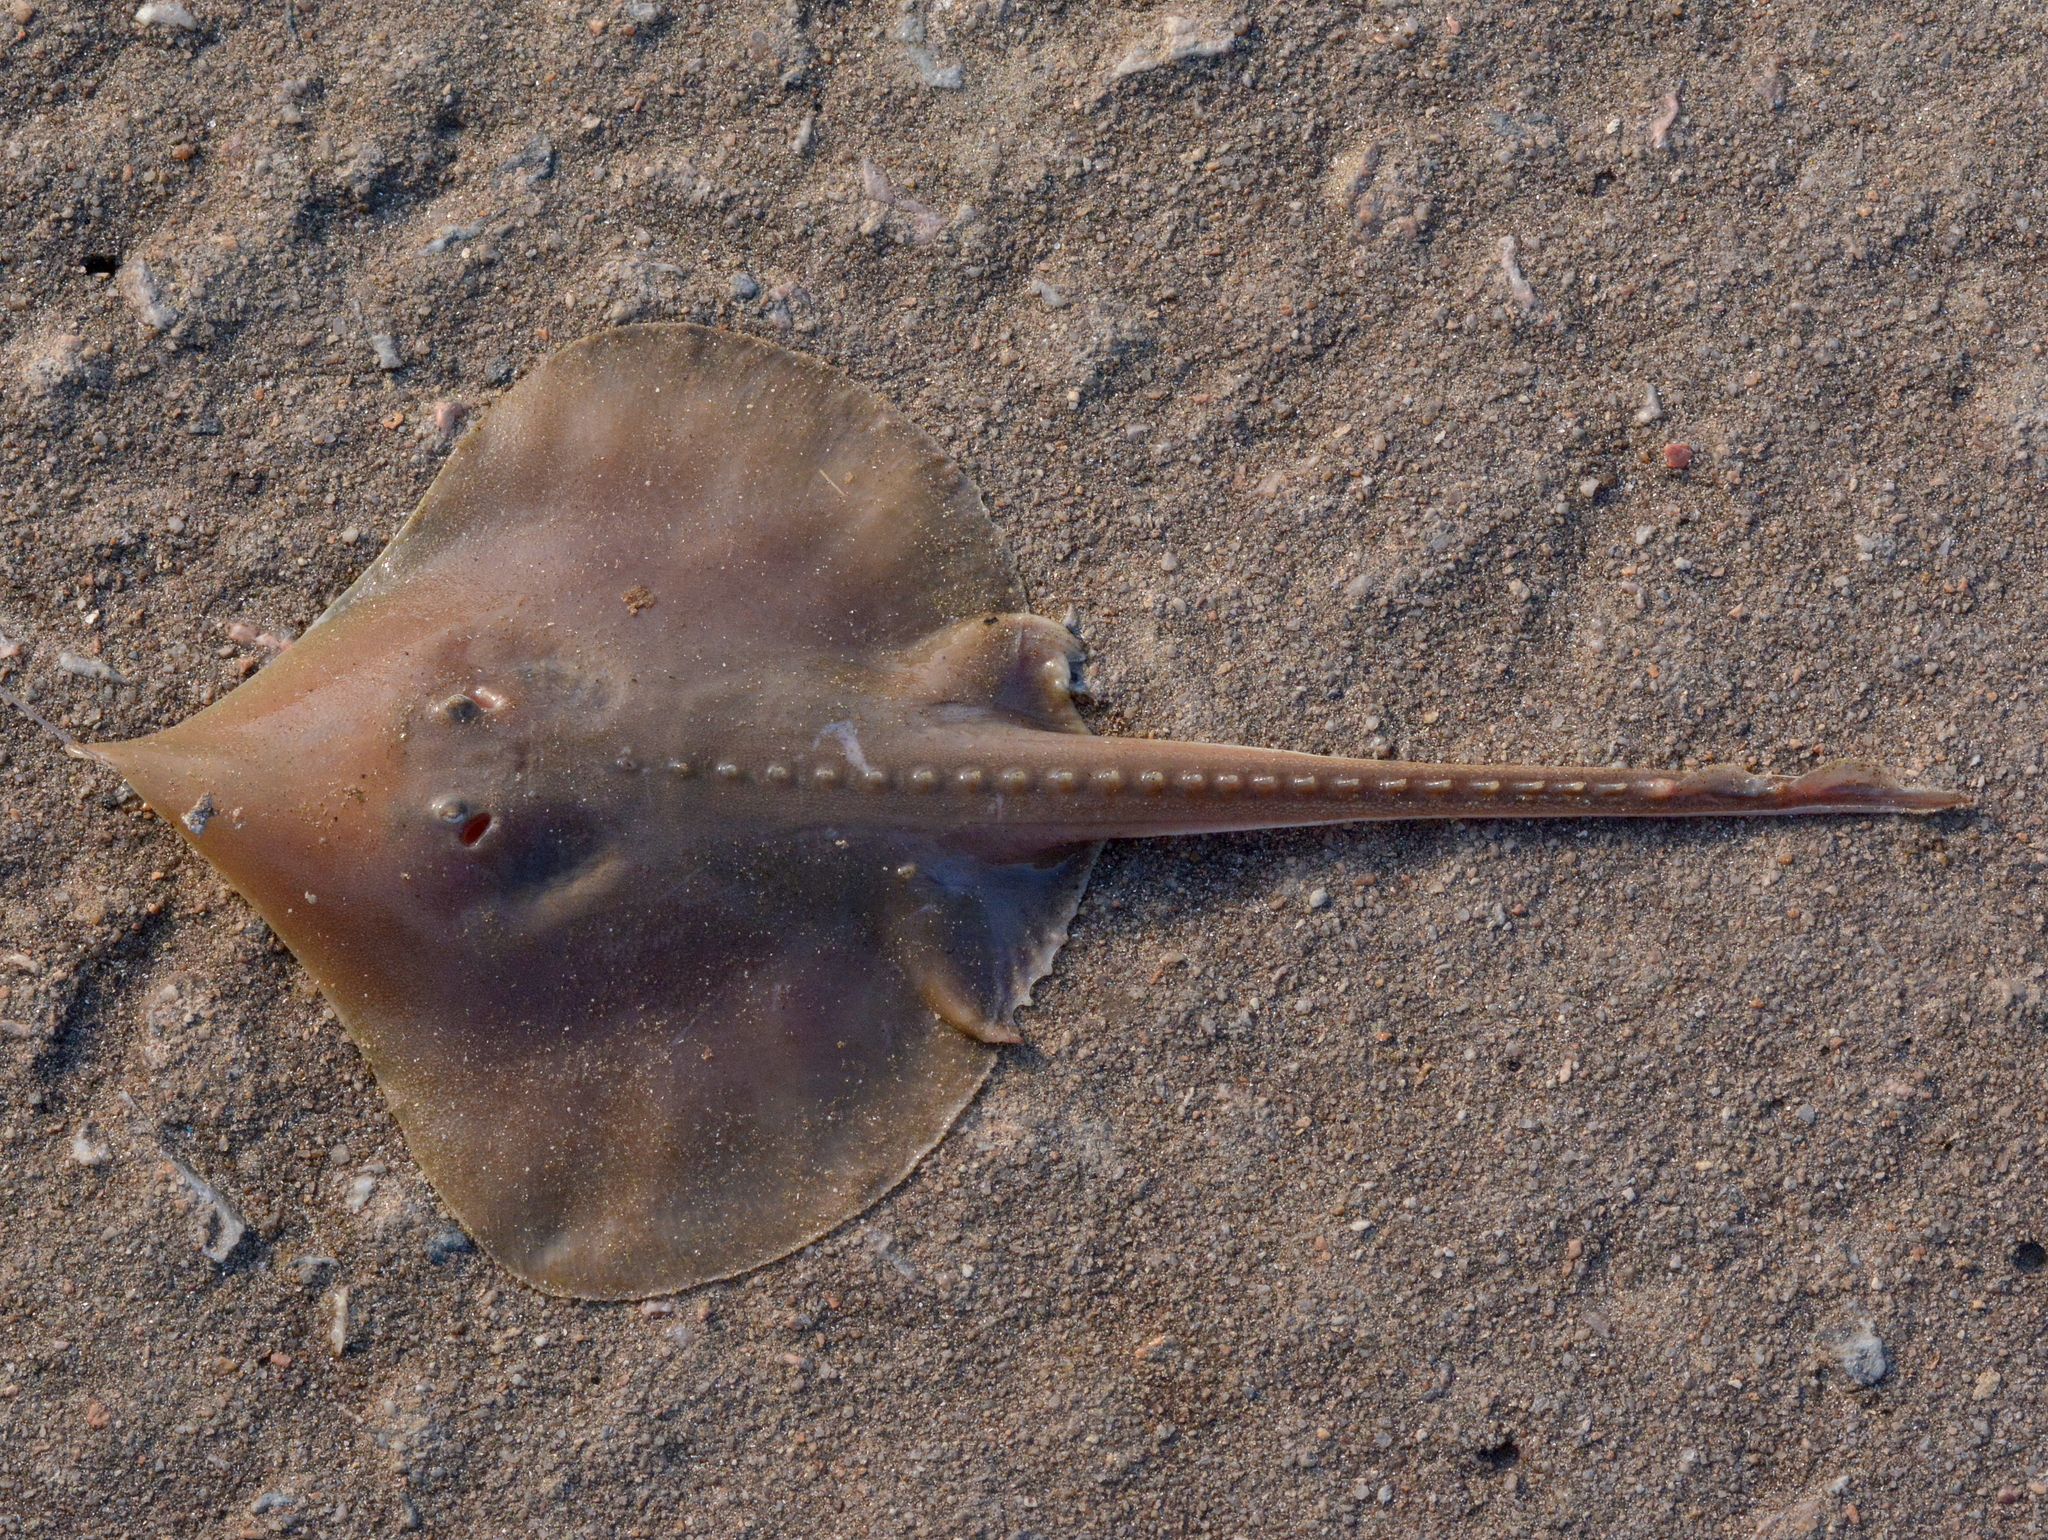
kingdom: Animalia
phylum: Chordata
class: Elasmobranchii
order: Rajiformes
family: Arhynchobatidae
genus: Sympterygia
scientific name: Sympterygia acuta
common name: Bignose fanskate
